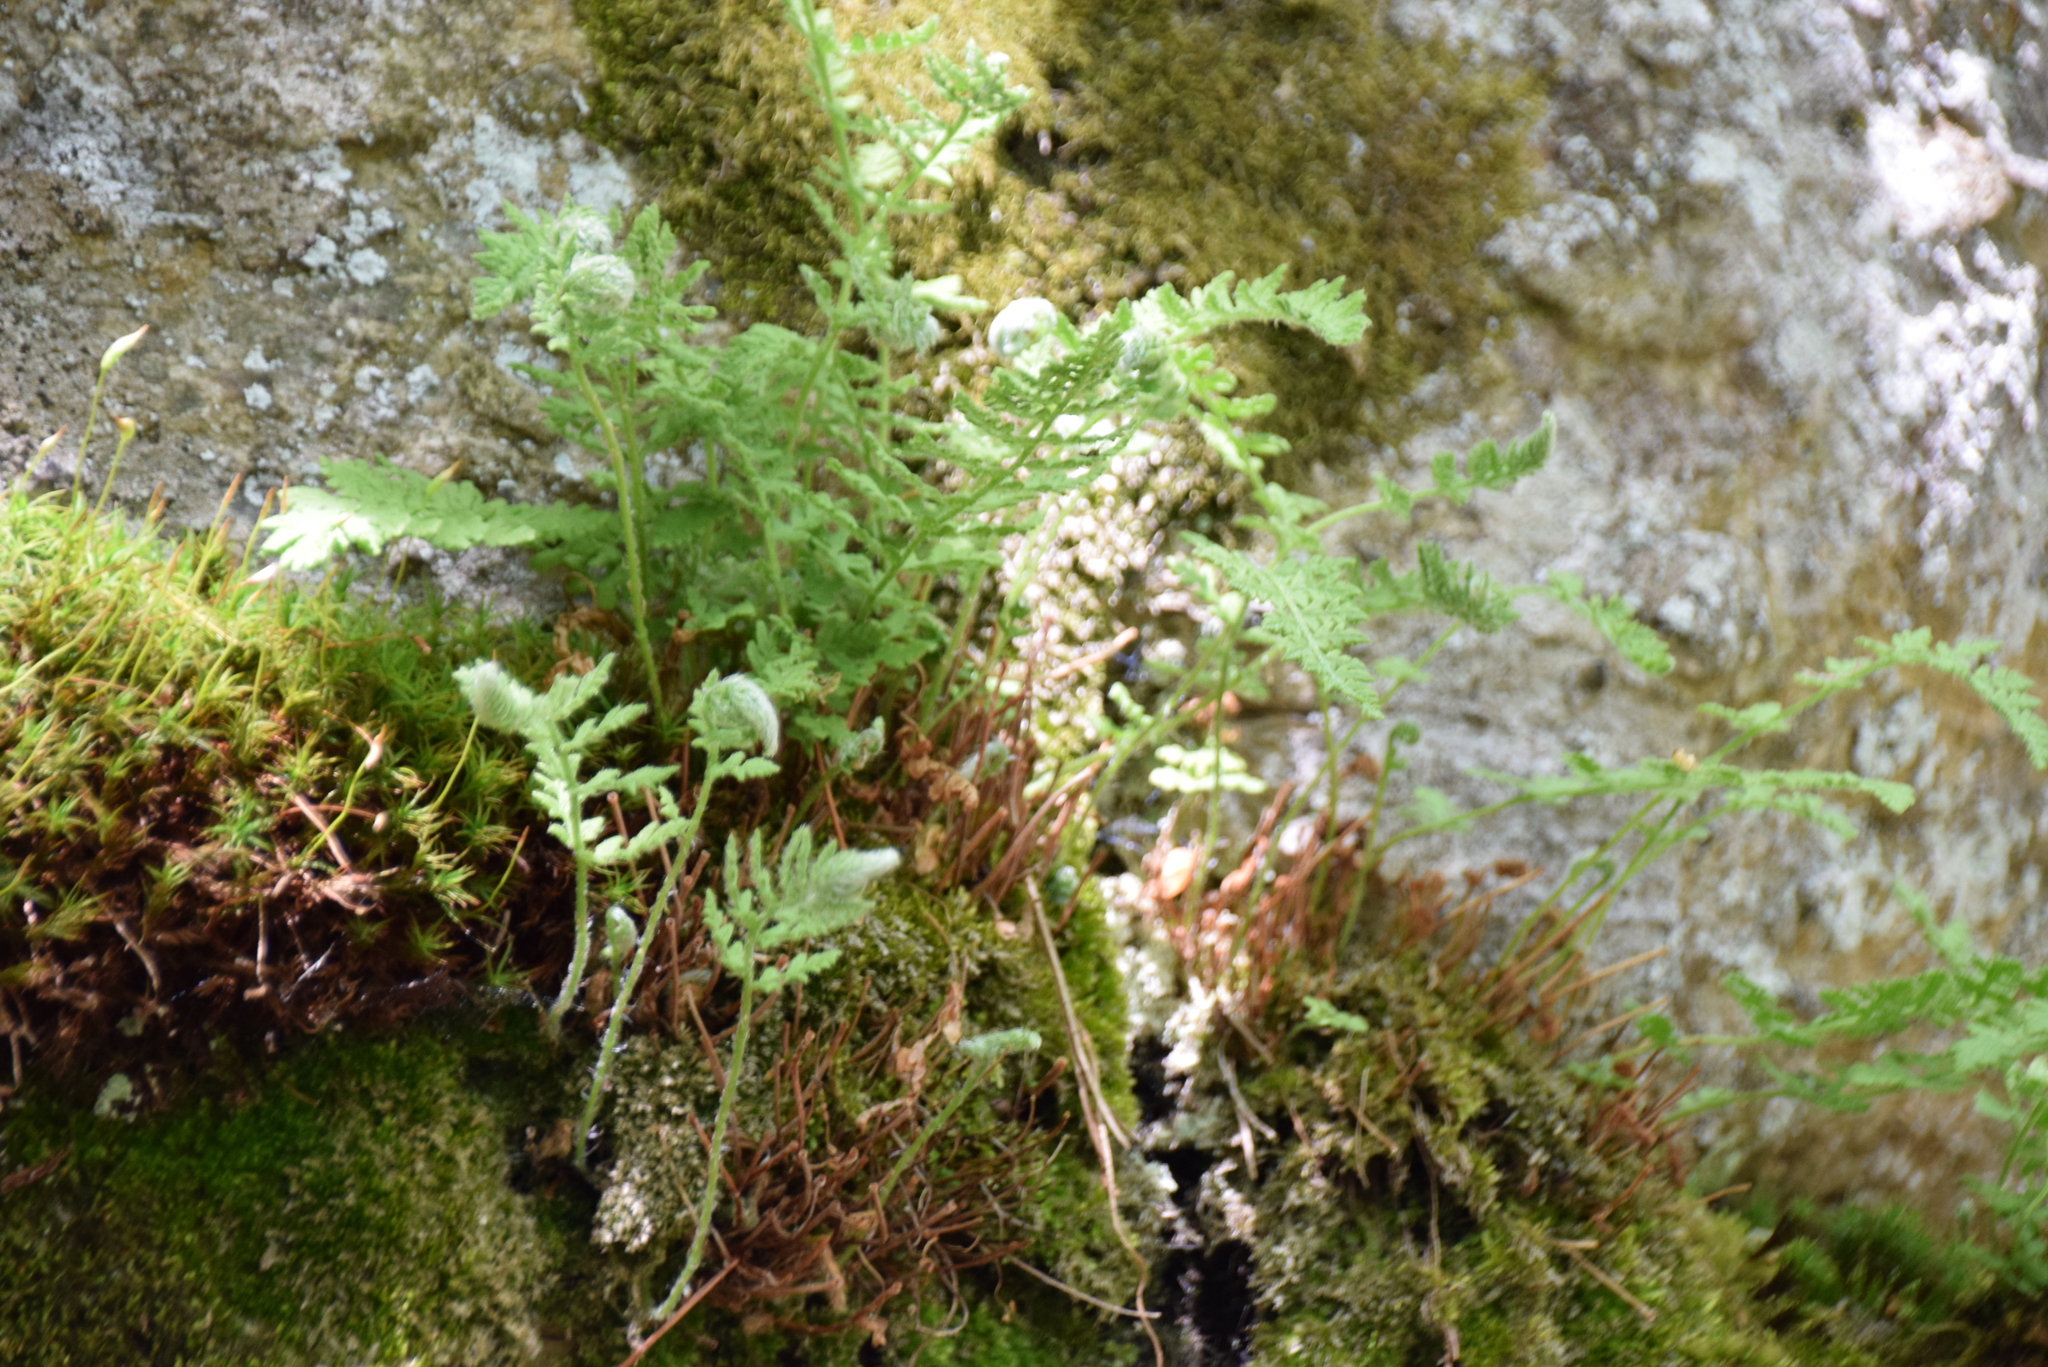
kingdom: Plantae
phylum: Tracheophyta
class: Polypodiopsida
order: Polypodiales
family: Woodsiaceae
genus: Woodsia
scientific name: Woodsia ilvensis
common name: Fragrant woodsia
